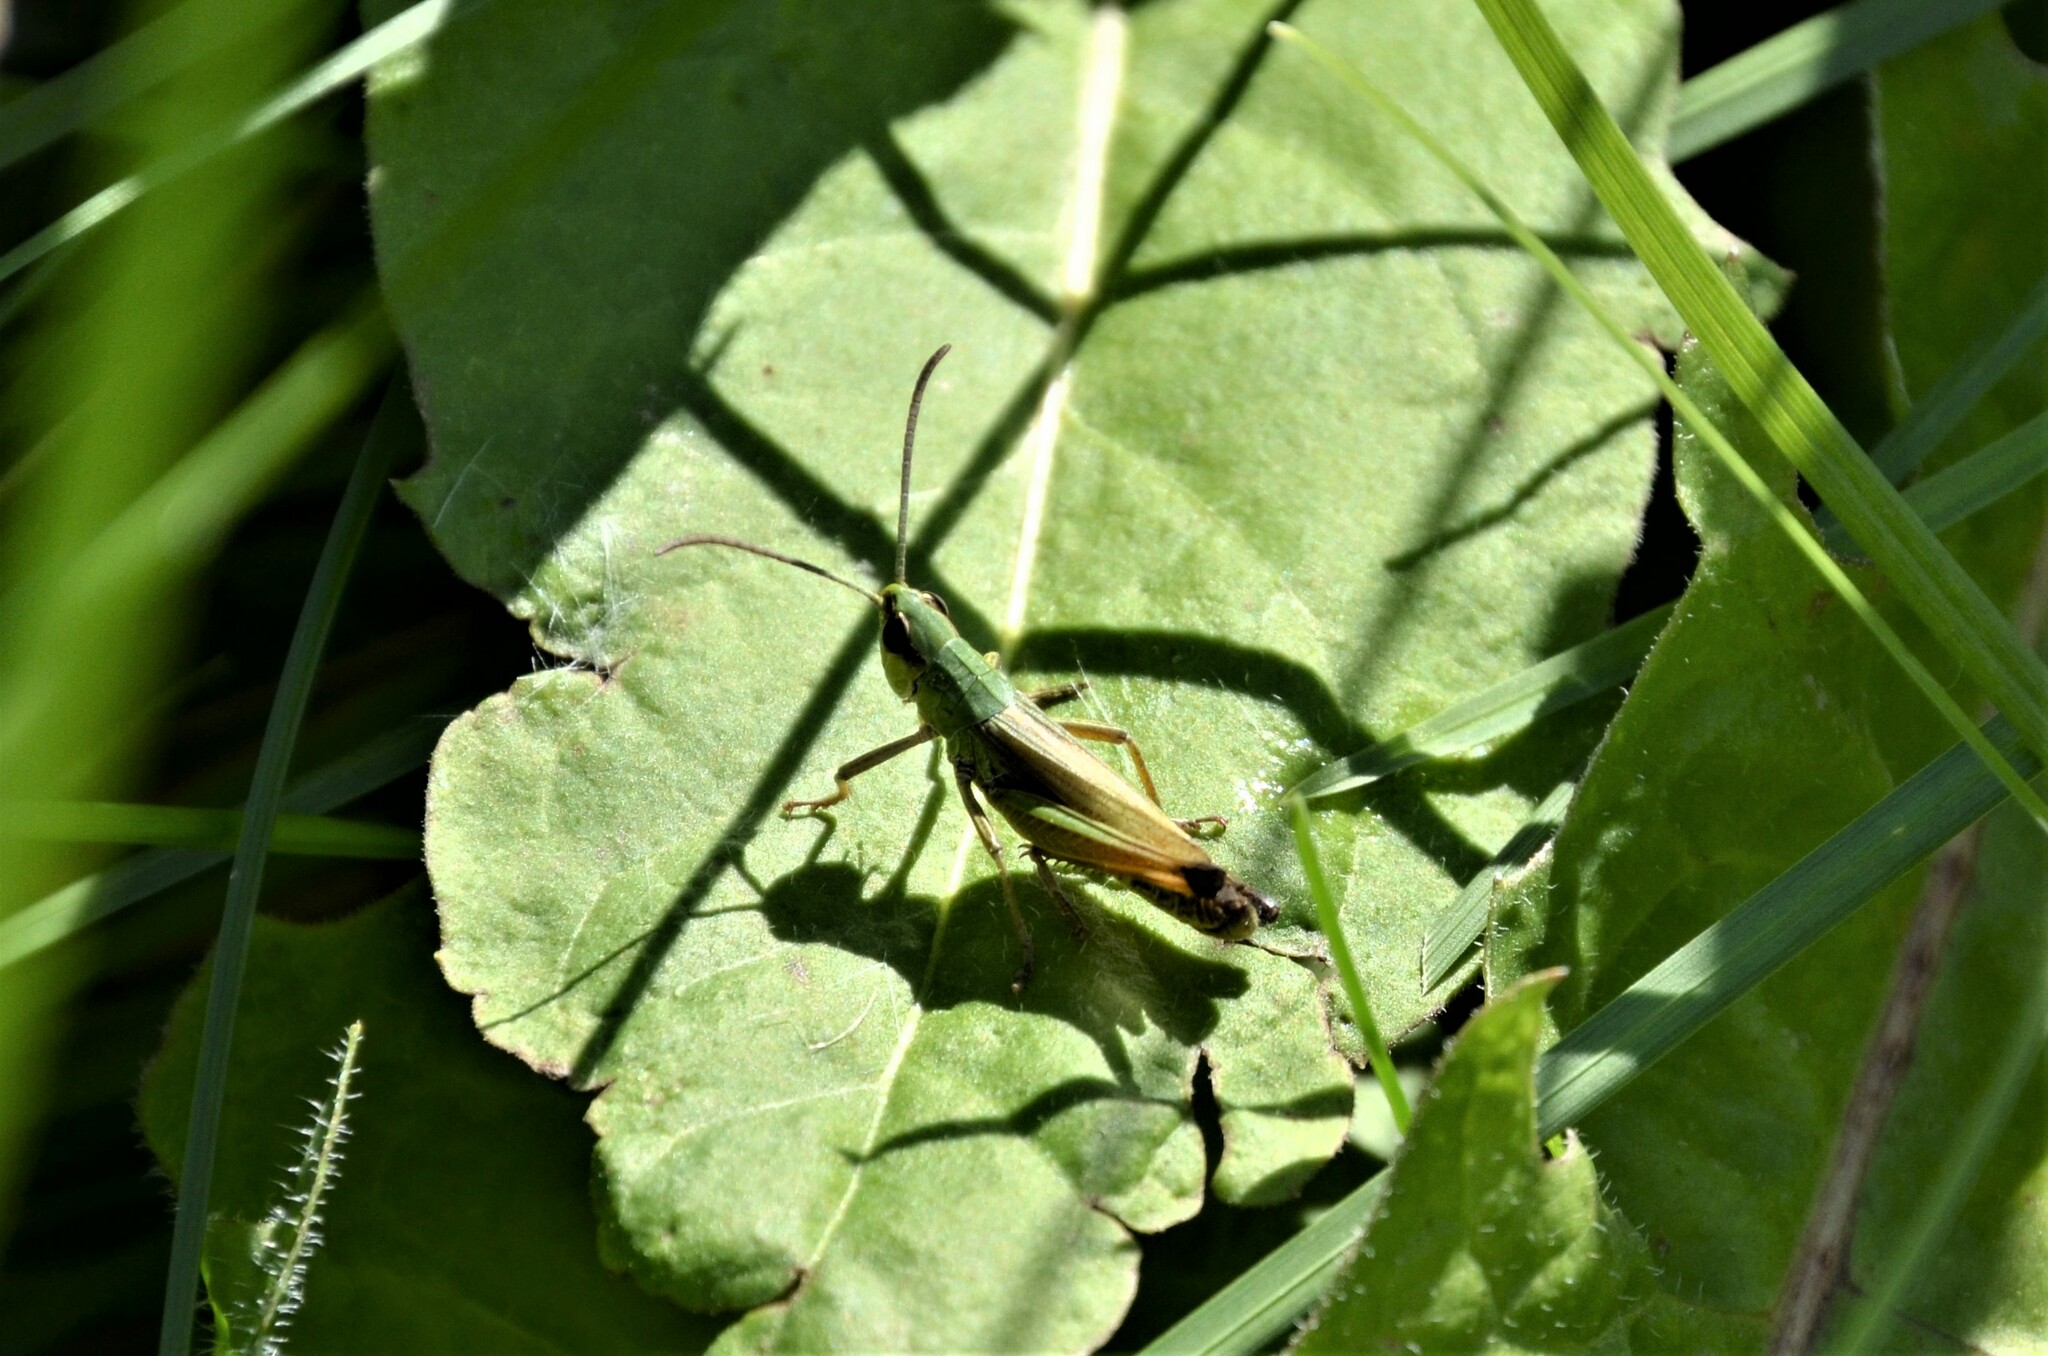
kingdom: Animalia
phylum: Arthropoda
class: Insecta
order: Orthoptera
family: Acrididae
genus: Pseudochorthippus
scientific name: Pseudochorthippus parallelus
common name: Meadow grasshopper
